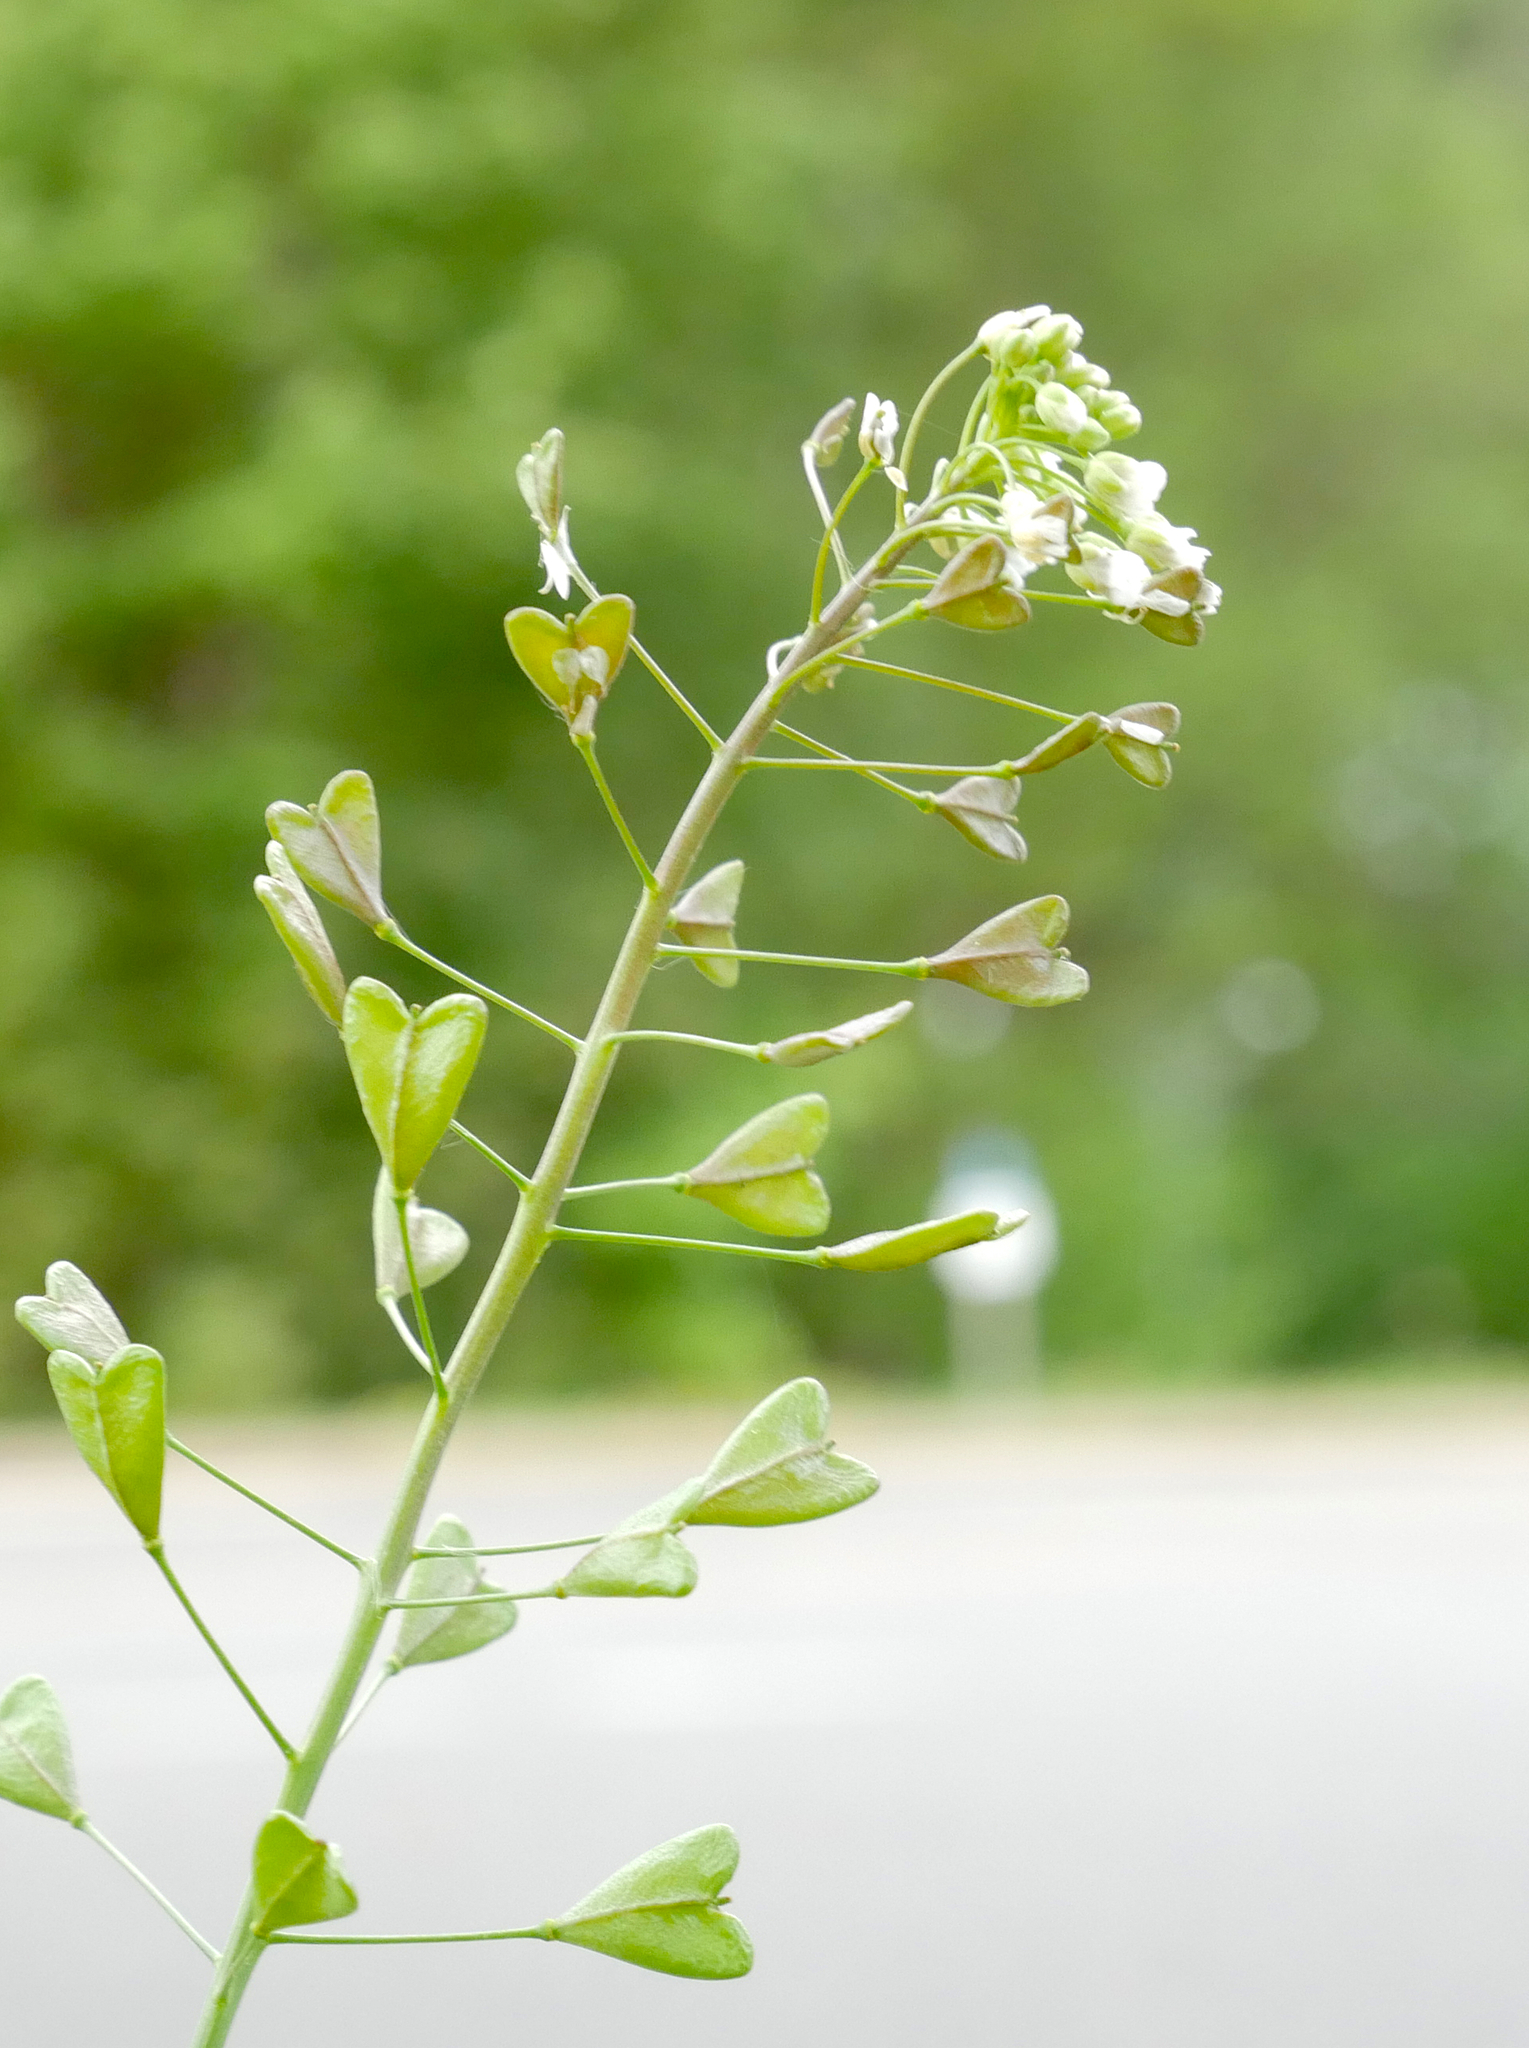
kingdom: Plantae
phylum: Tracheophyta
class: Magnoliopsida
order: Brassicales
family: Brassicaceae
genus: Capsella
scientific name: Capsella bursa-pastoris
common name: Shepherd's purse
